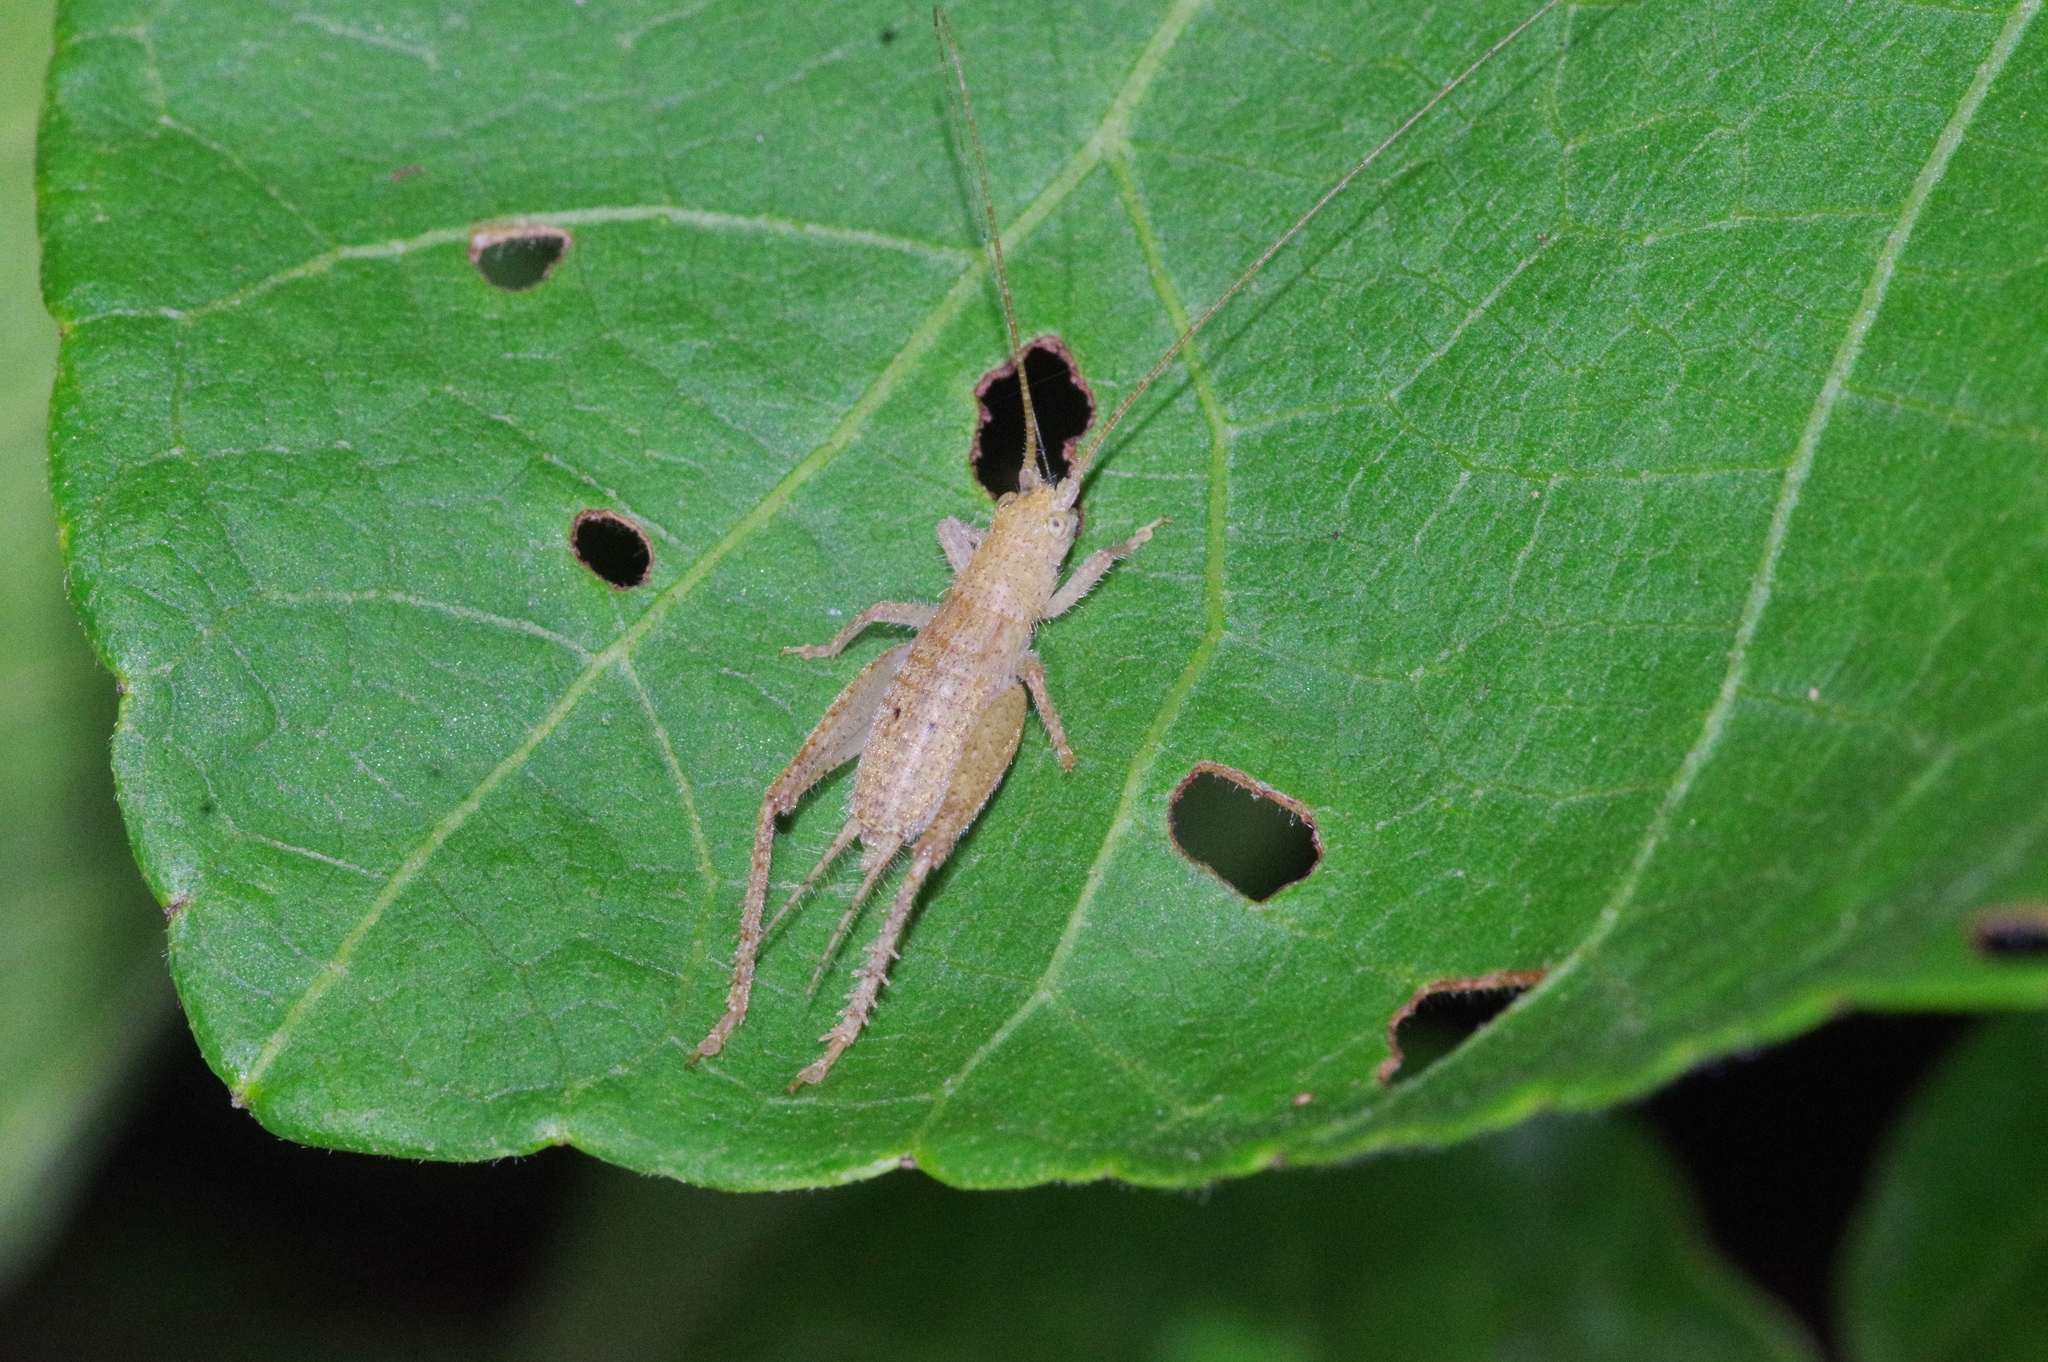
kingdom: Animalia
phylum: Arthropoda
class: Insecta
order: Orthoptera
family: Gryllidae
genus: Aphonoides
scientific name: Aphonoides rufescens
